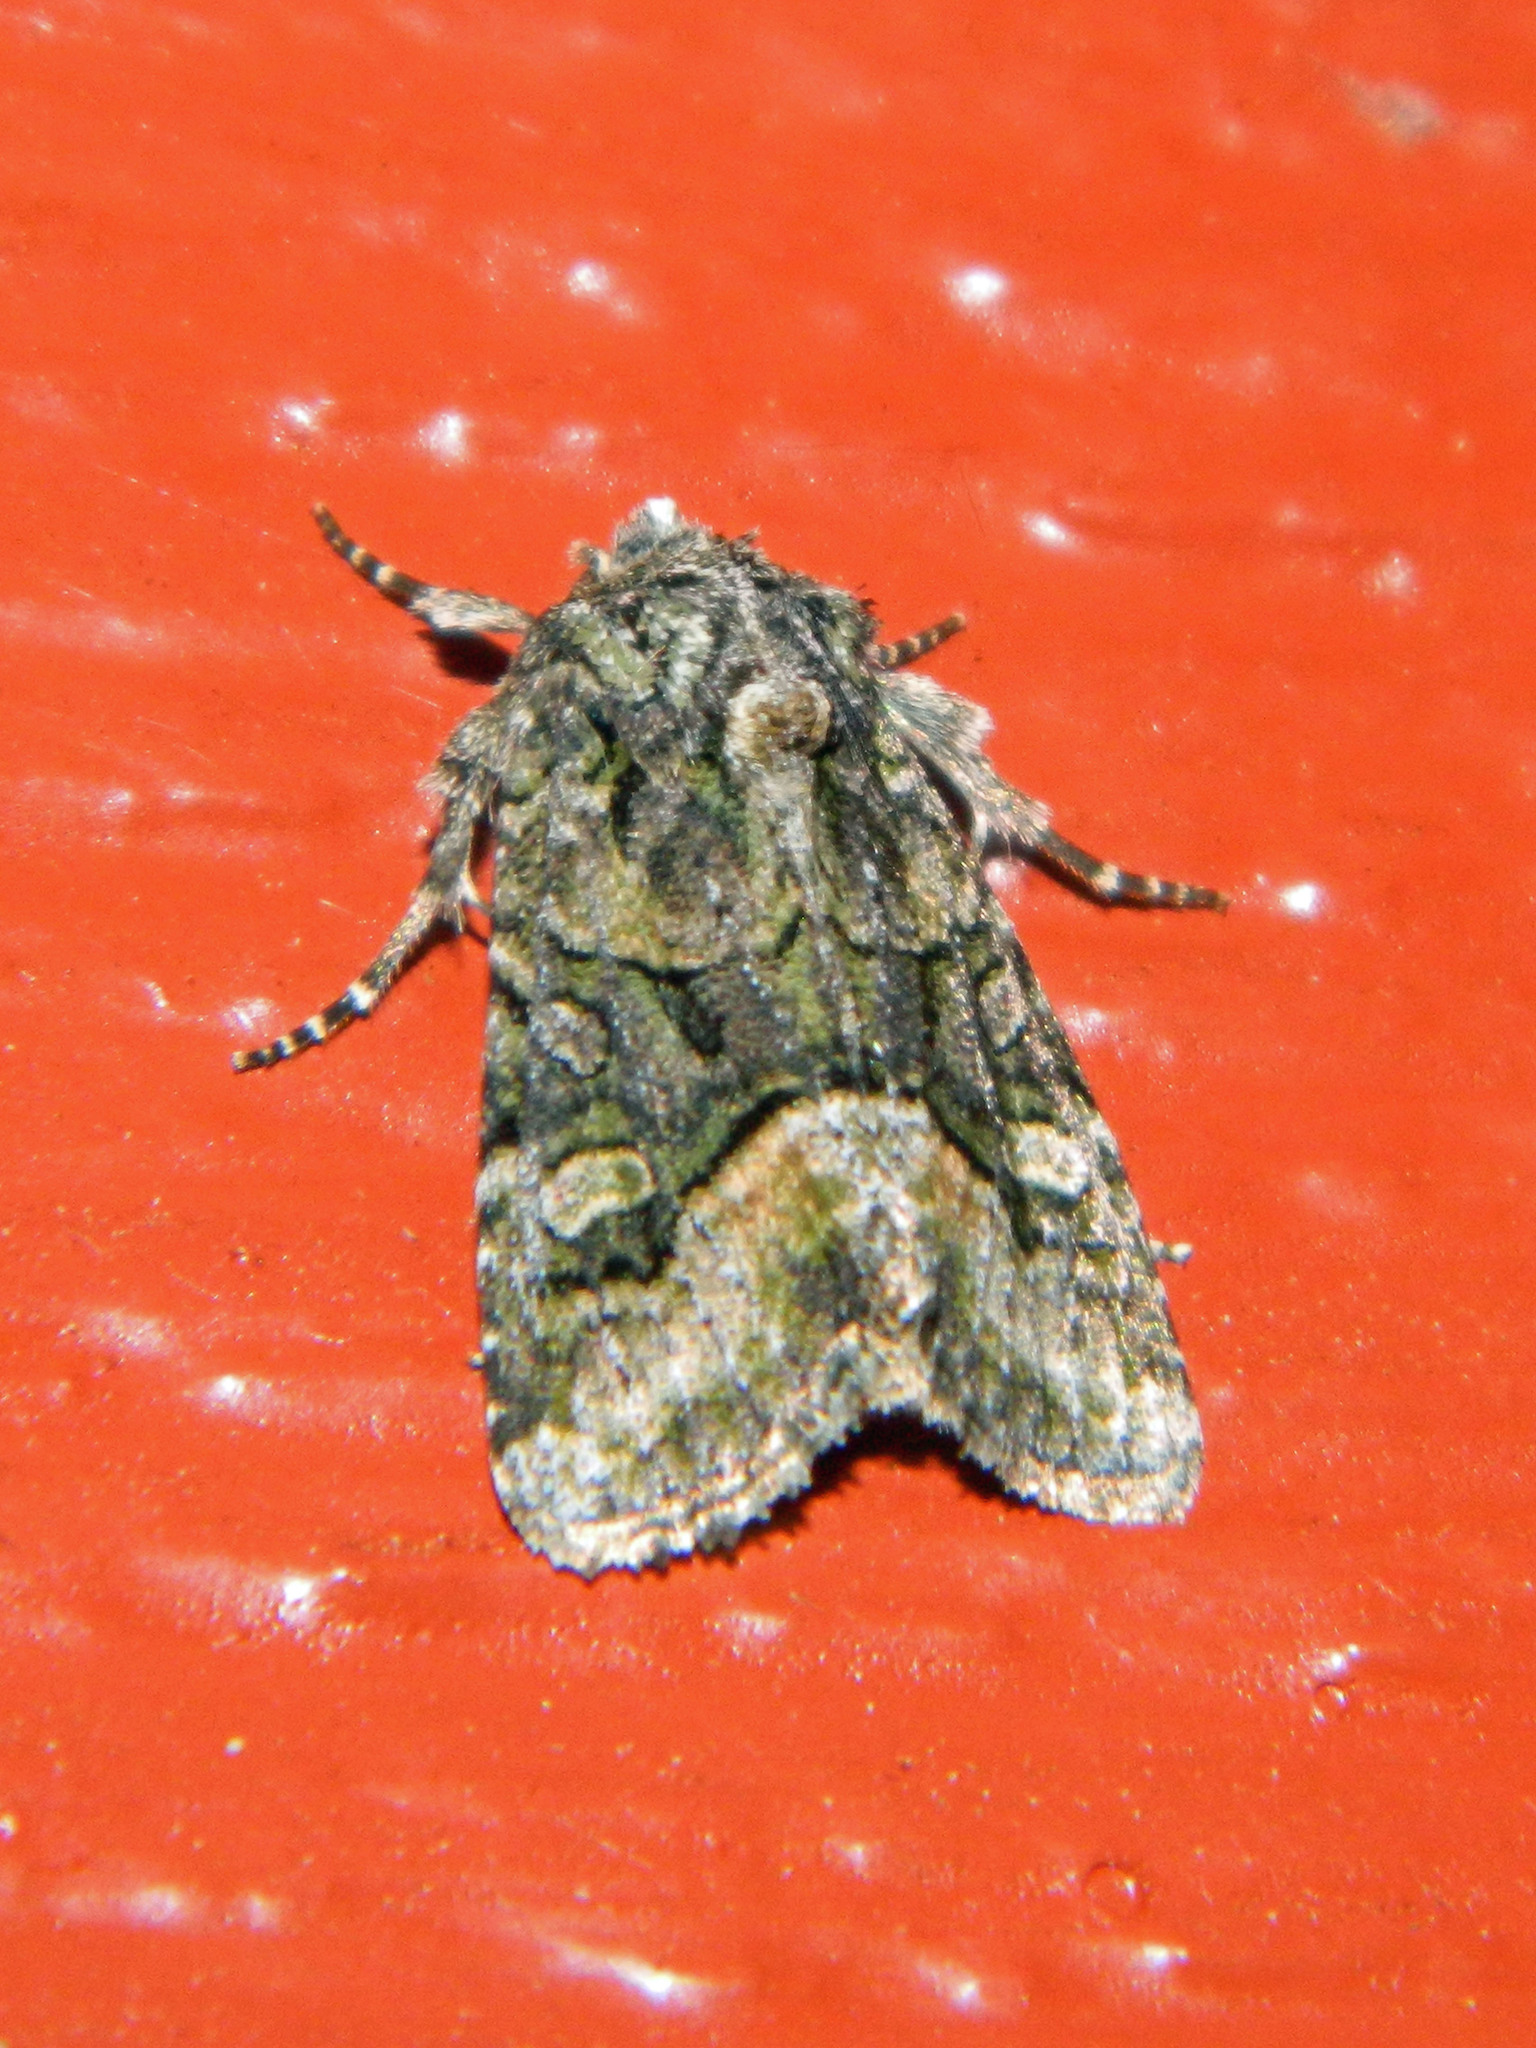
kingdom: Animalia
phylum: Arthropoda
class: Insecta
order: Lepidoptera
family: Noctuidae
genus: Lacinipolia
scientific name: Lacinipolia olivacea
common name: Olive arches moth
